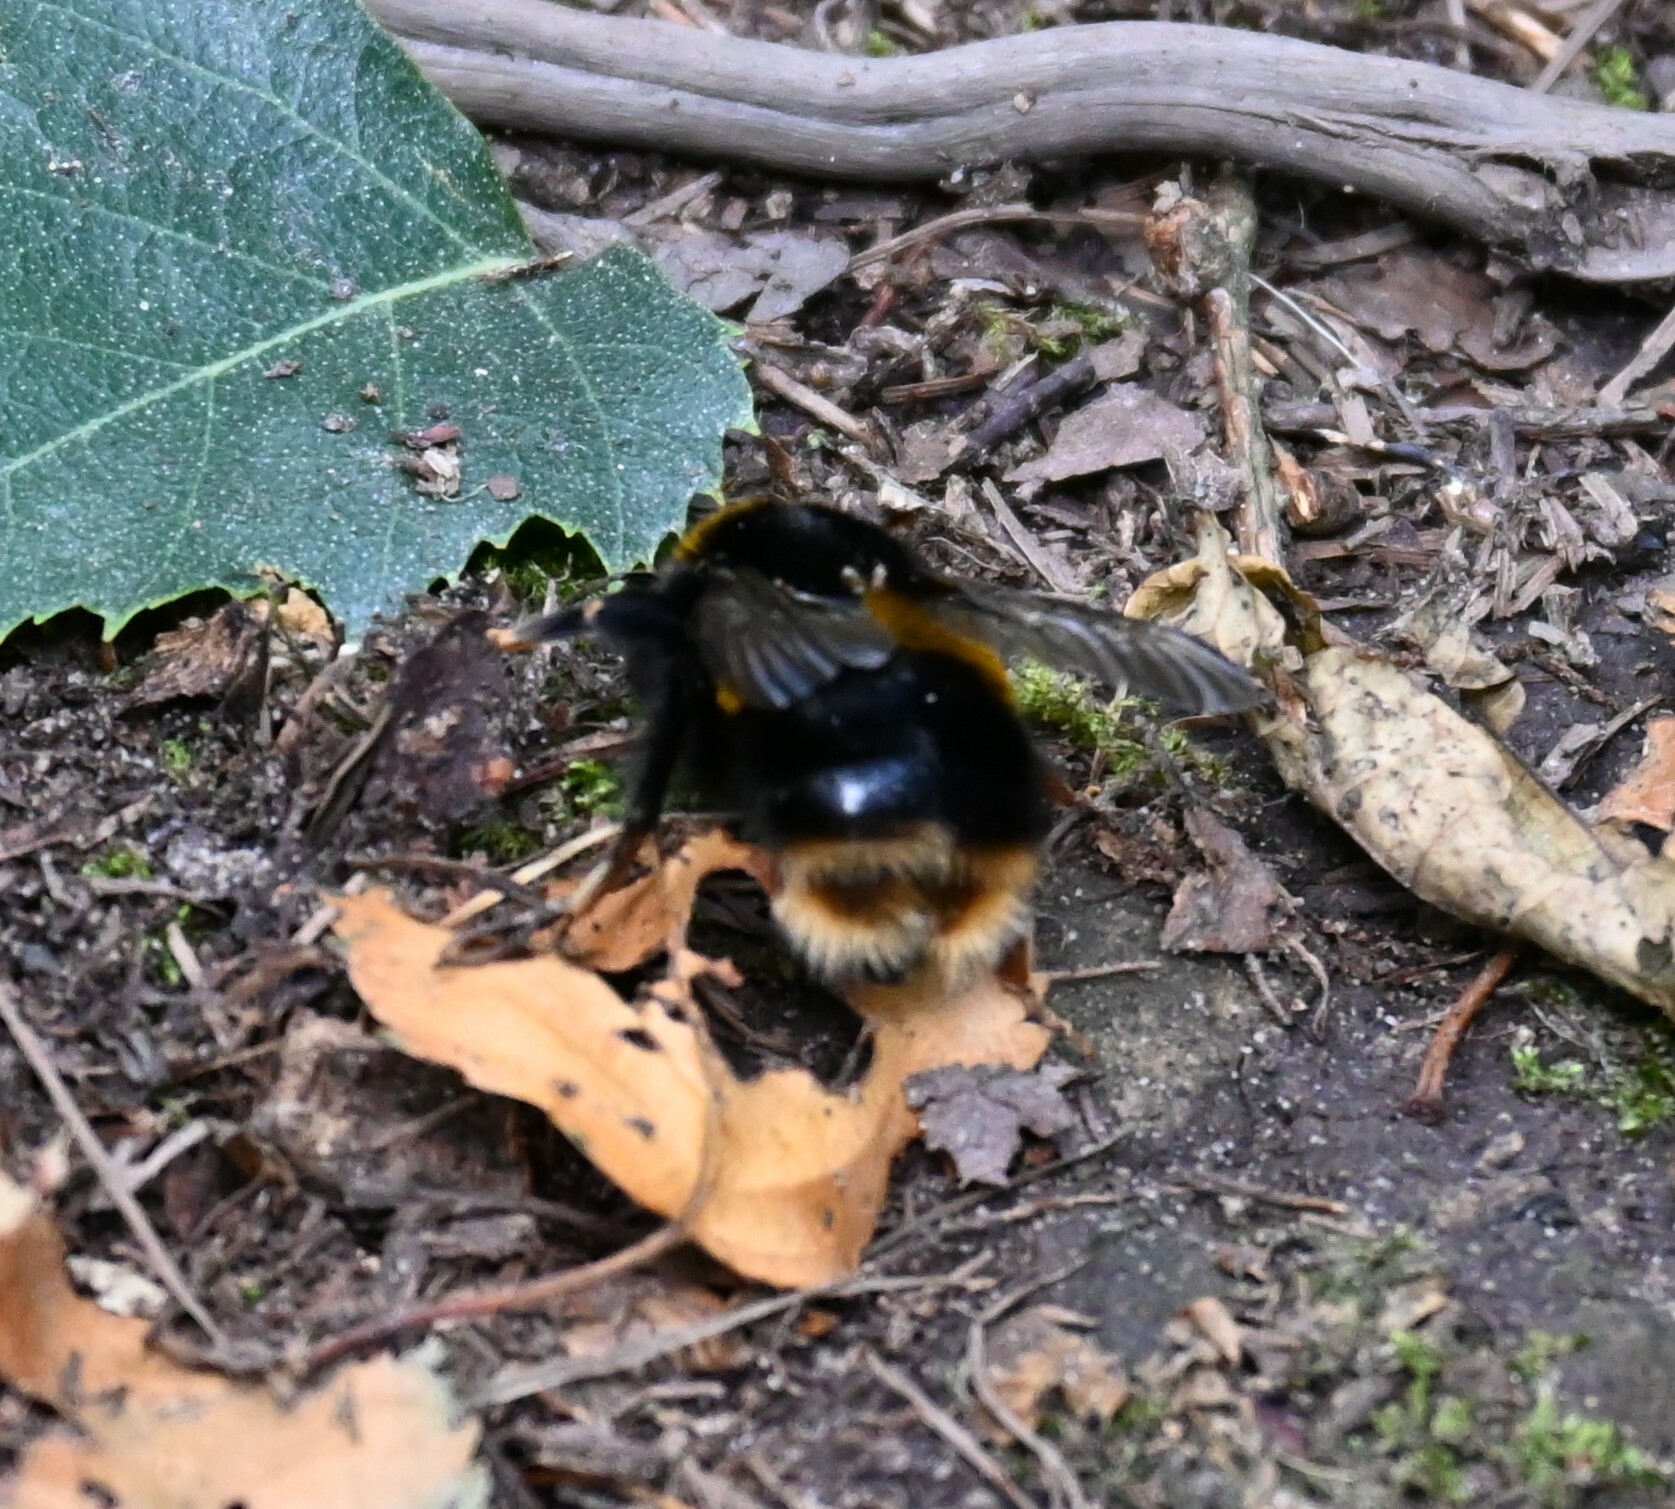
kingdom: Animalia
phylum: Arthropoda
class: Insecta
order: Hymenoptera
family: Apidae
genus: Bombus
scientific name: Bombus terrestris
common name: Buff-tailed bumblebee
